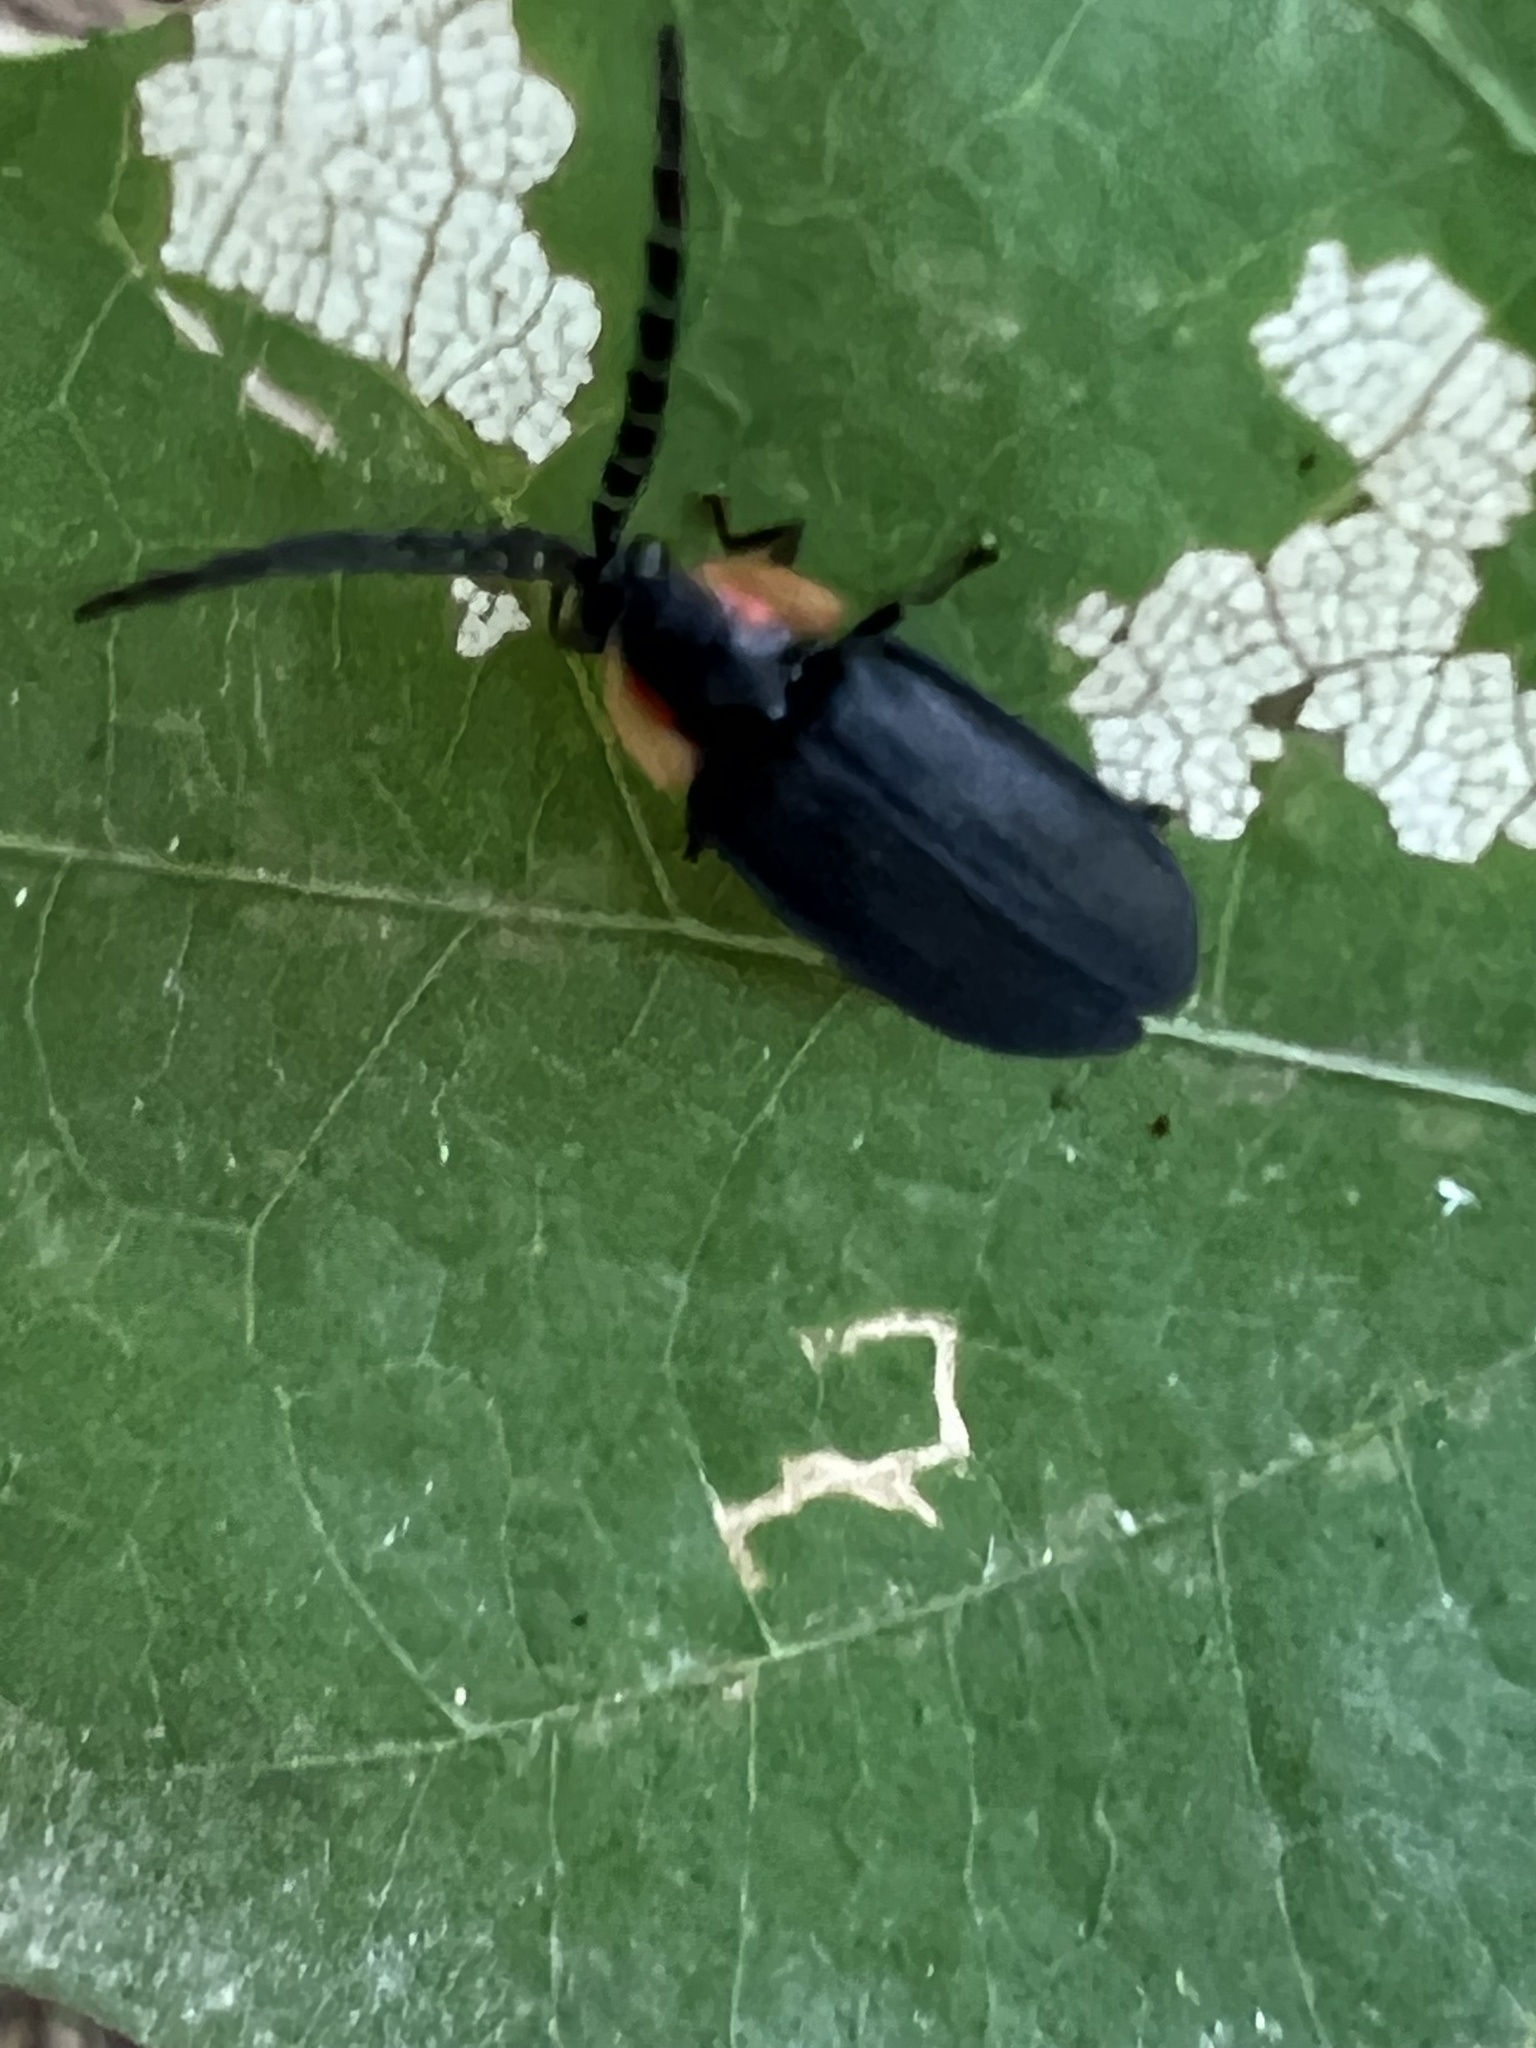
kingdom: Animalia
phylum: Arthropoda
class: Insecta
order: Coleoptera
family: Lampyridae
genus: Lucidota
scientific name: Lucidota atra
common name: Black firefly
